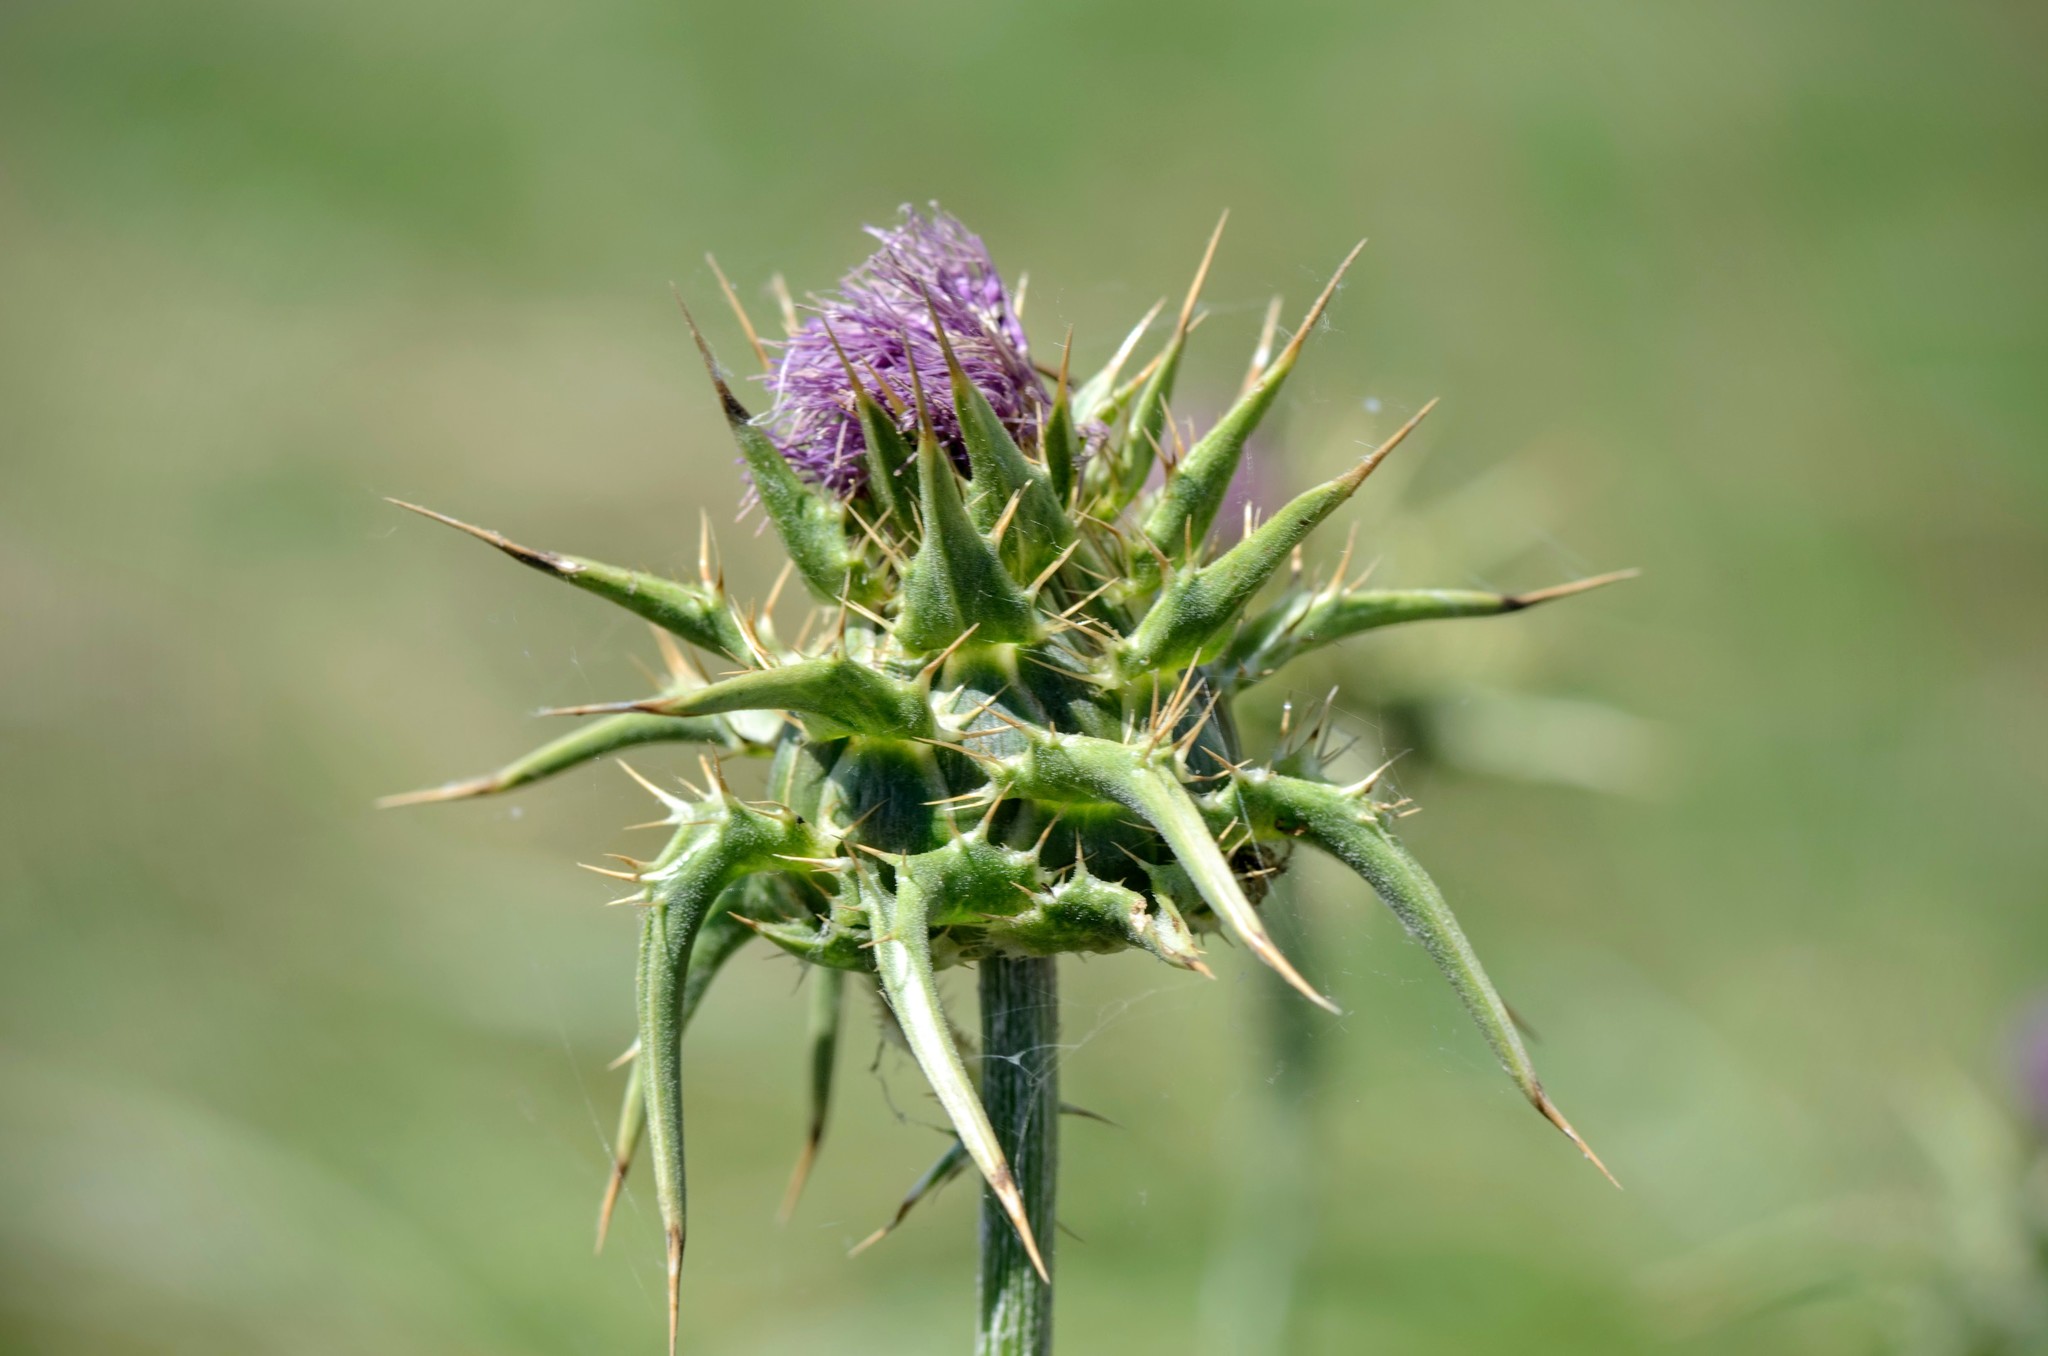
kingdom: Plantae
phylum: Tracheophyta
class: Magnoliopsida
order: Asterales
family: Asteraceae
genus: Silybum
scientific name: Silybum marianum
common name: Milk thistle
